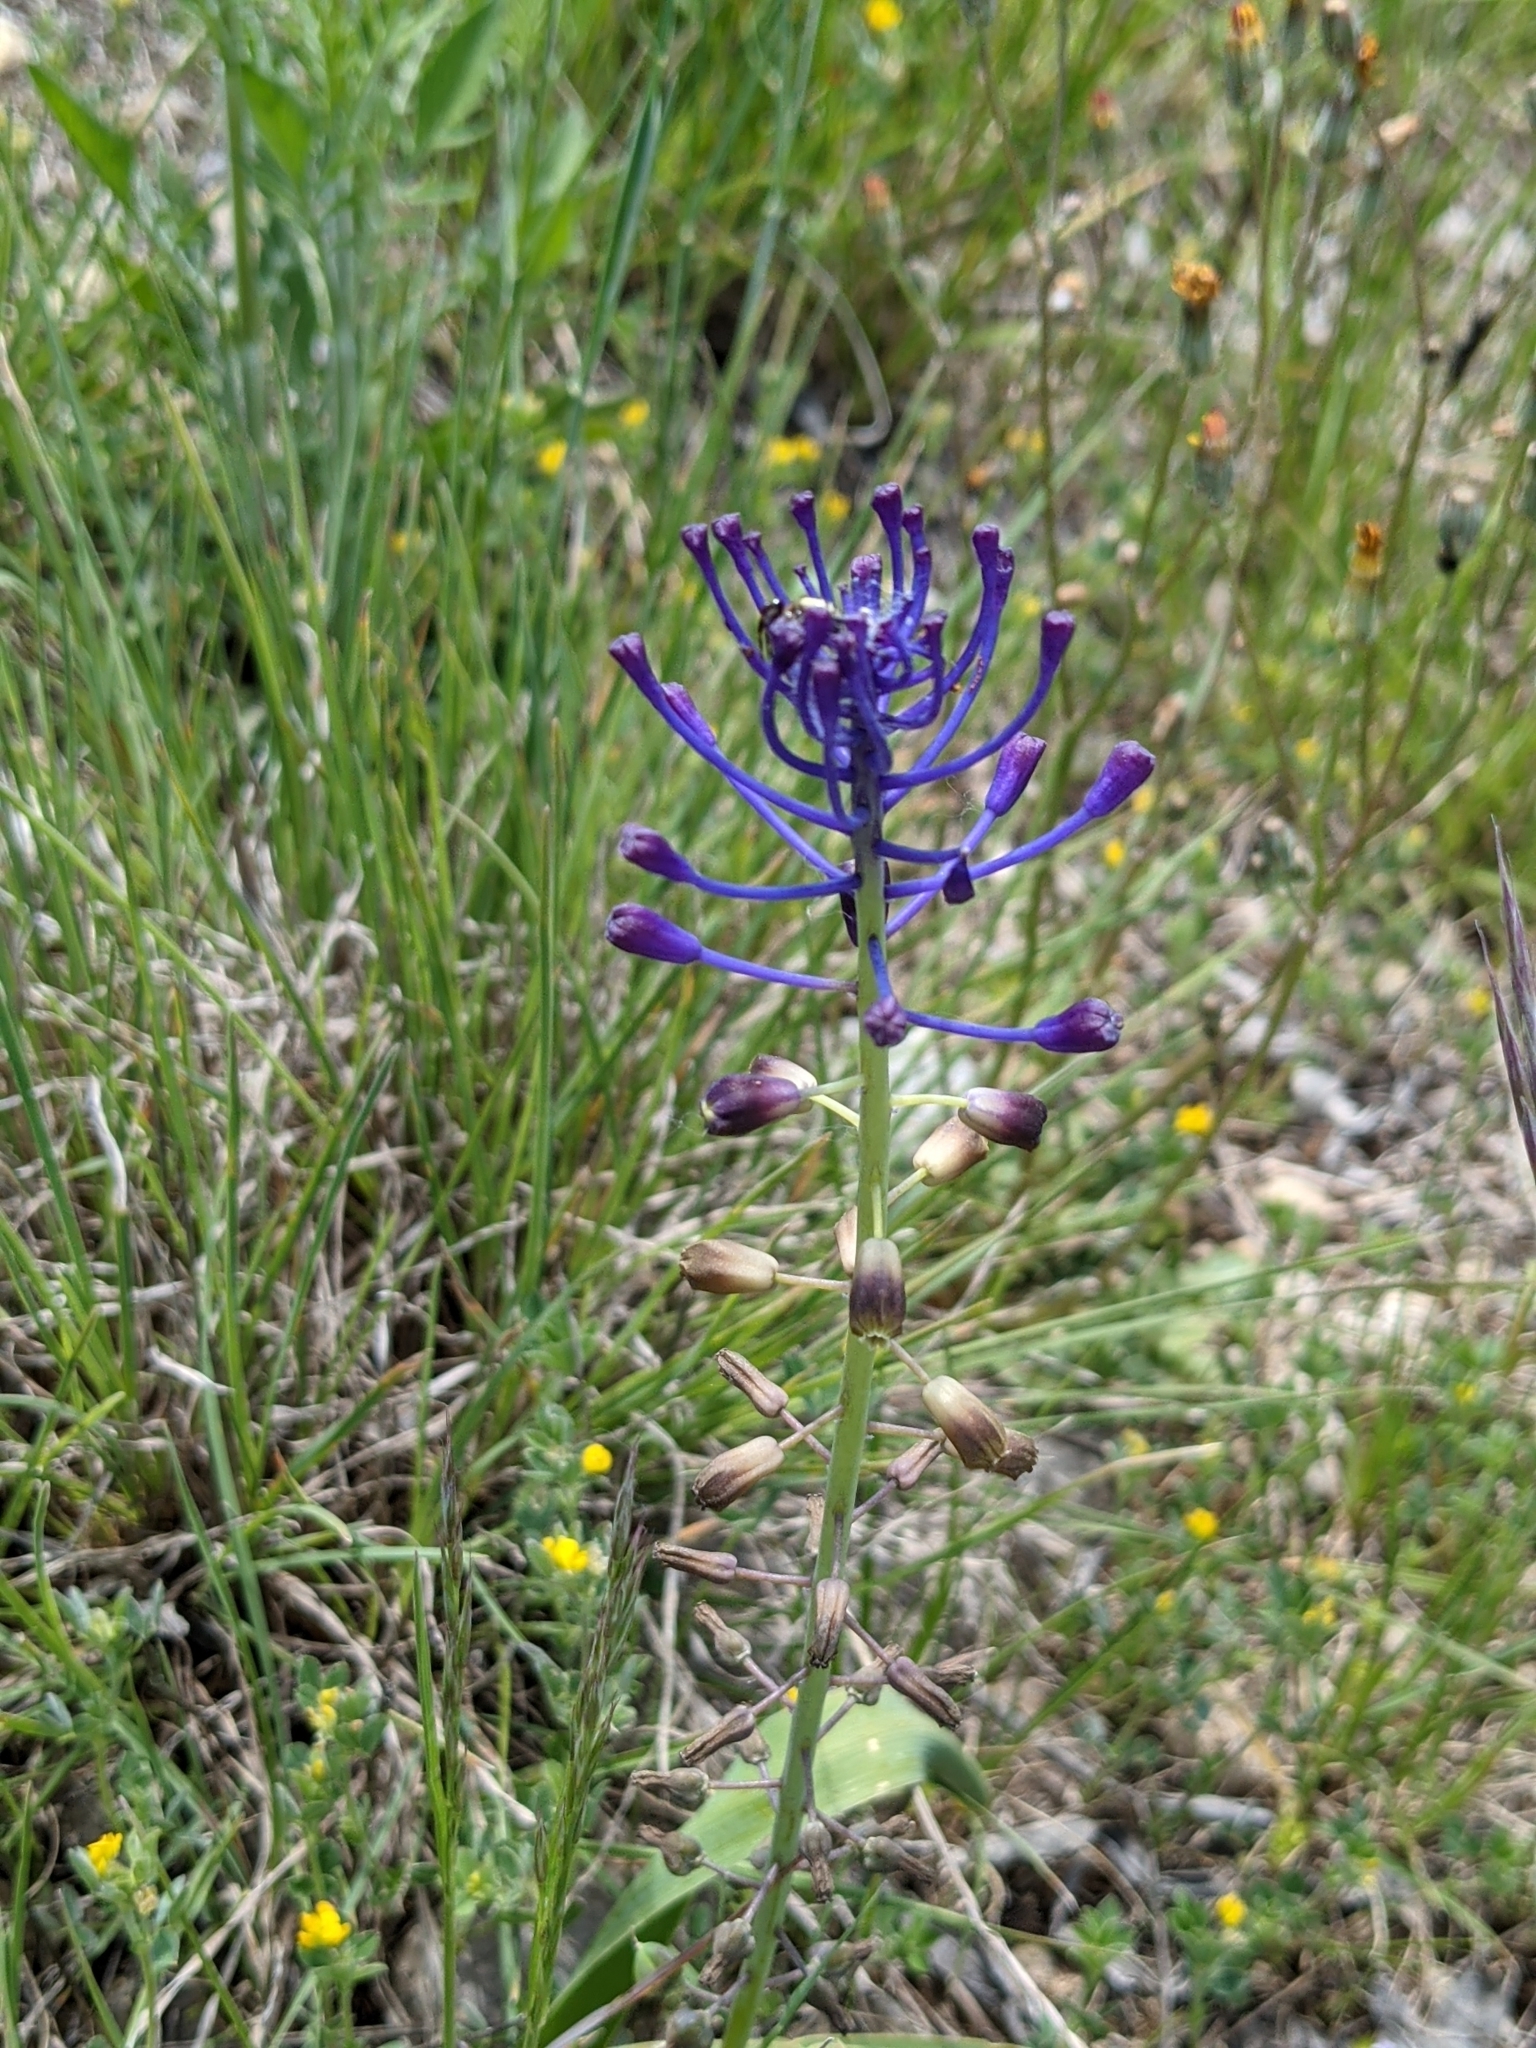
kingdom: Plantae
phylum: Tracheophyta
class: Liliopsida
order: Asparagales
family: Asparagaceae
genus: Muscari
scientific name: Muscari comosum
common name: Tassel hyacinth
